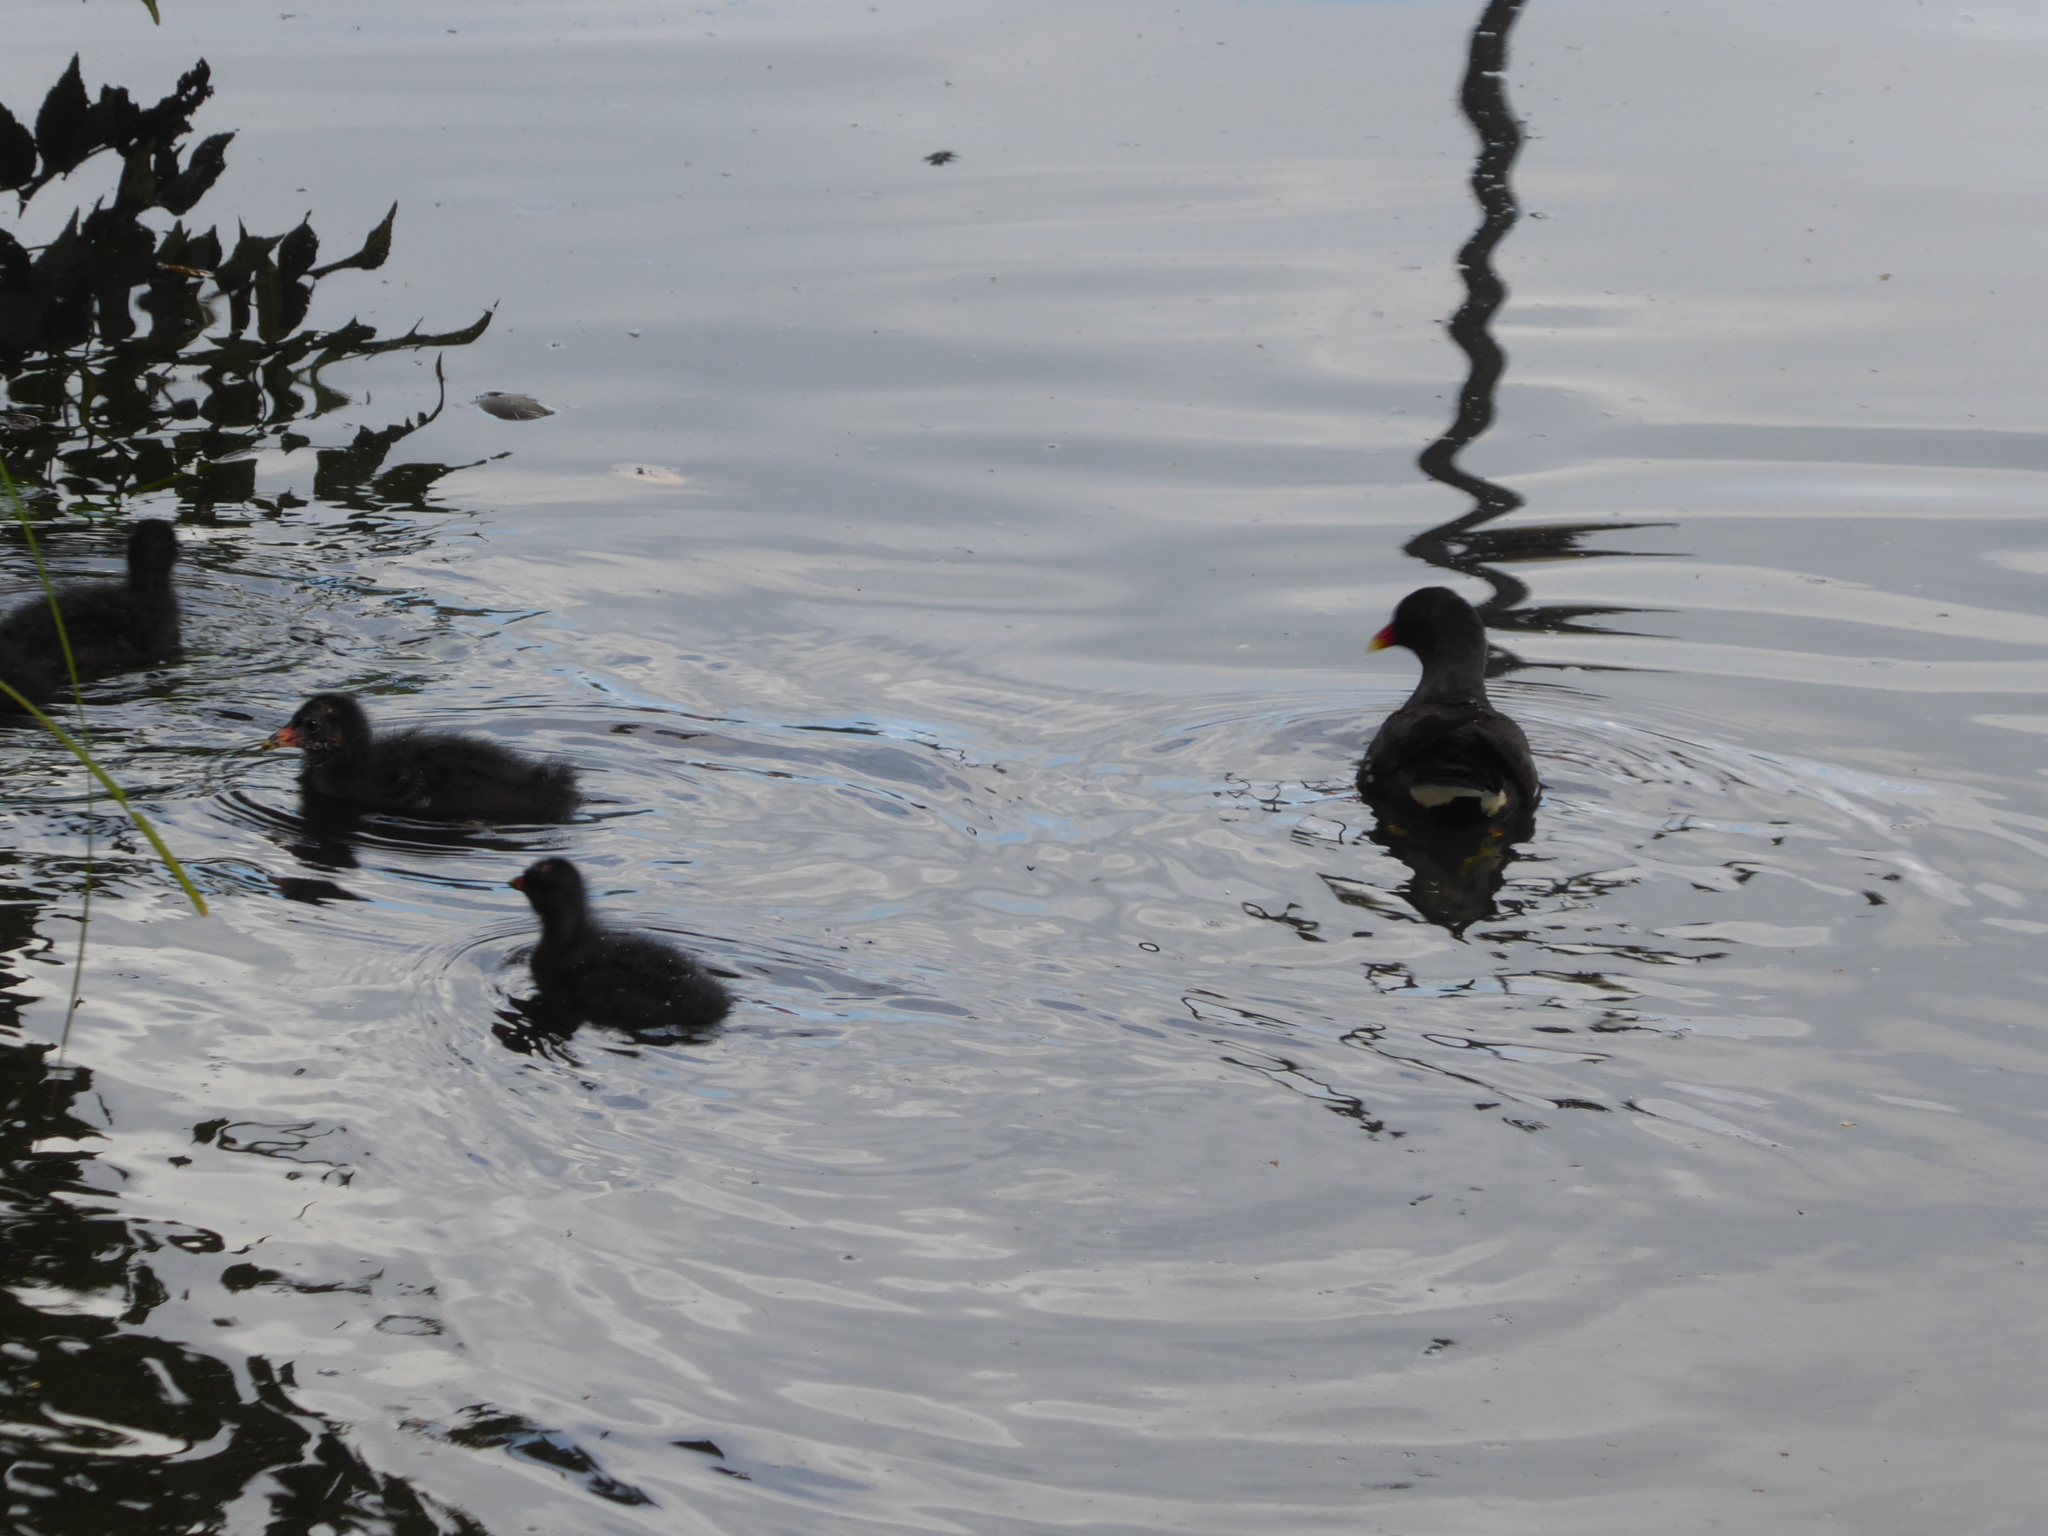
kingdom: Animalia
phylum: Chordata
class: Aves
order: Gruiformes
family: Rallidae
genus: Gallinula
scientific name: Gallinula chloropus
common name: Common moorhen
